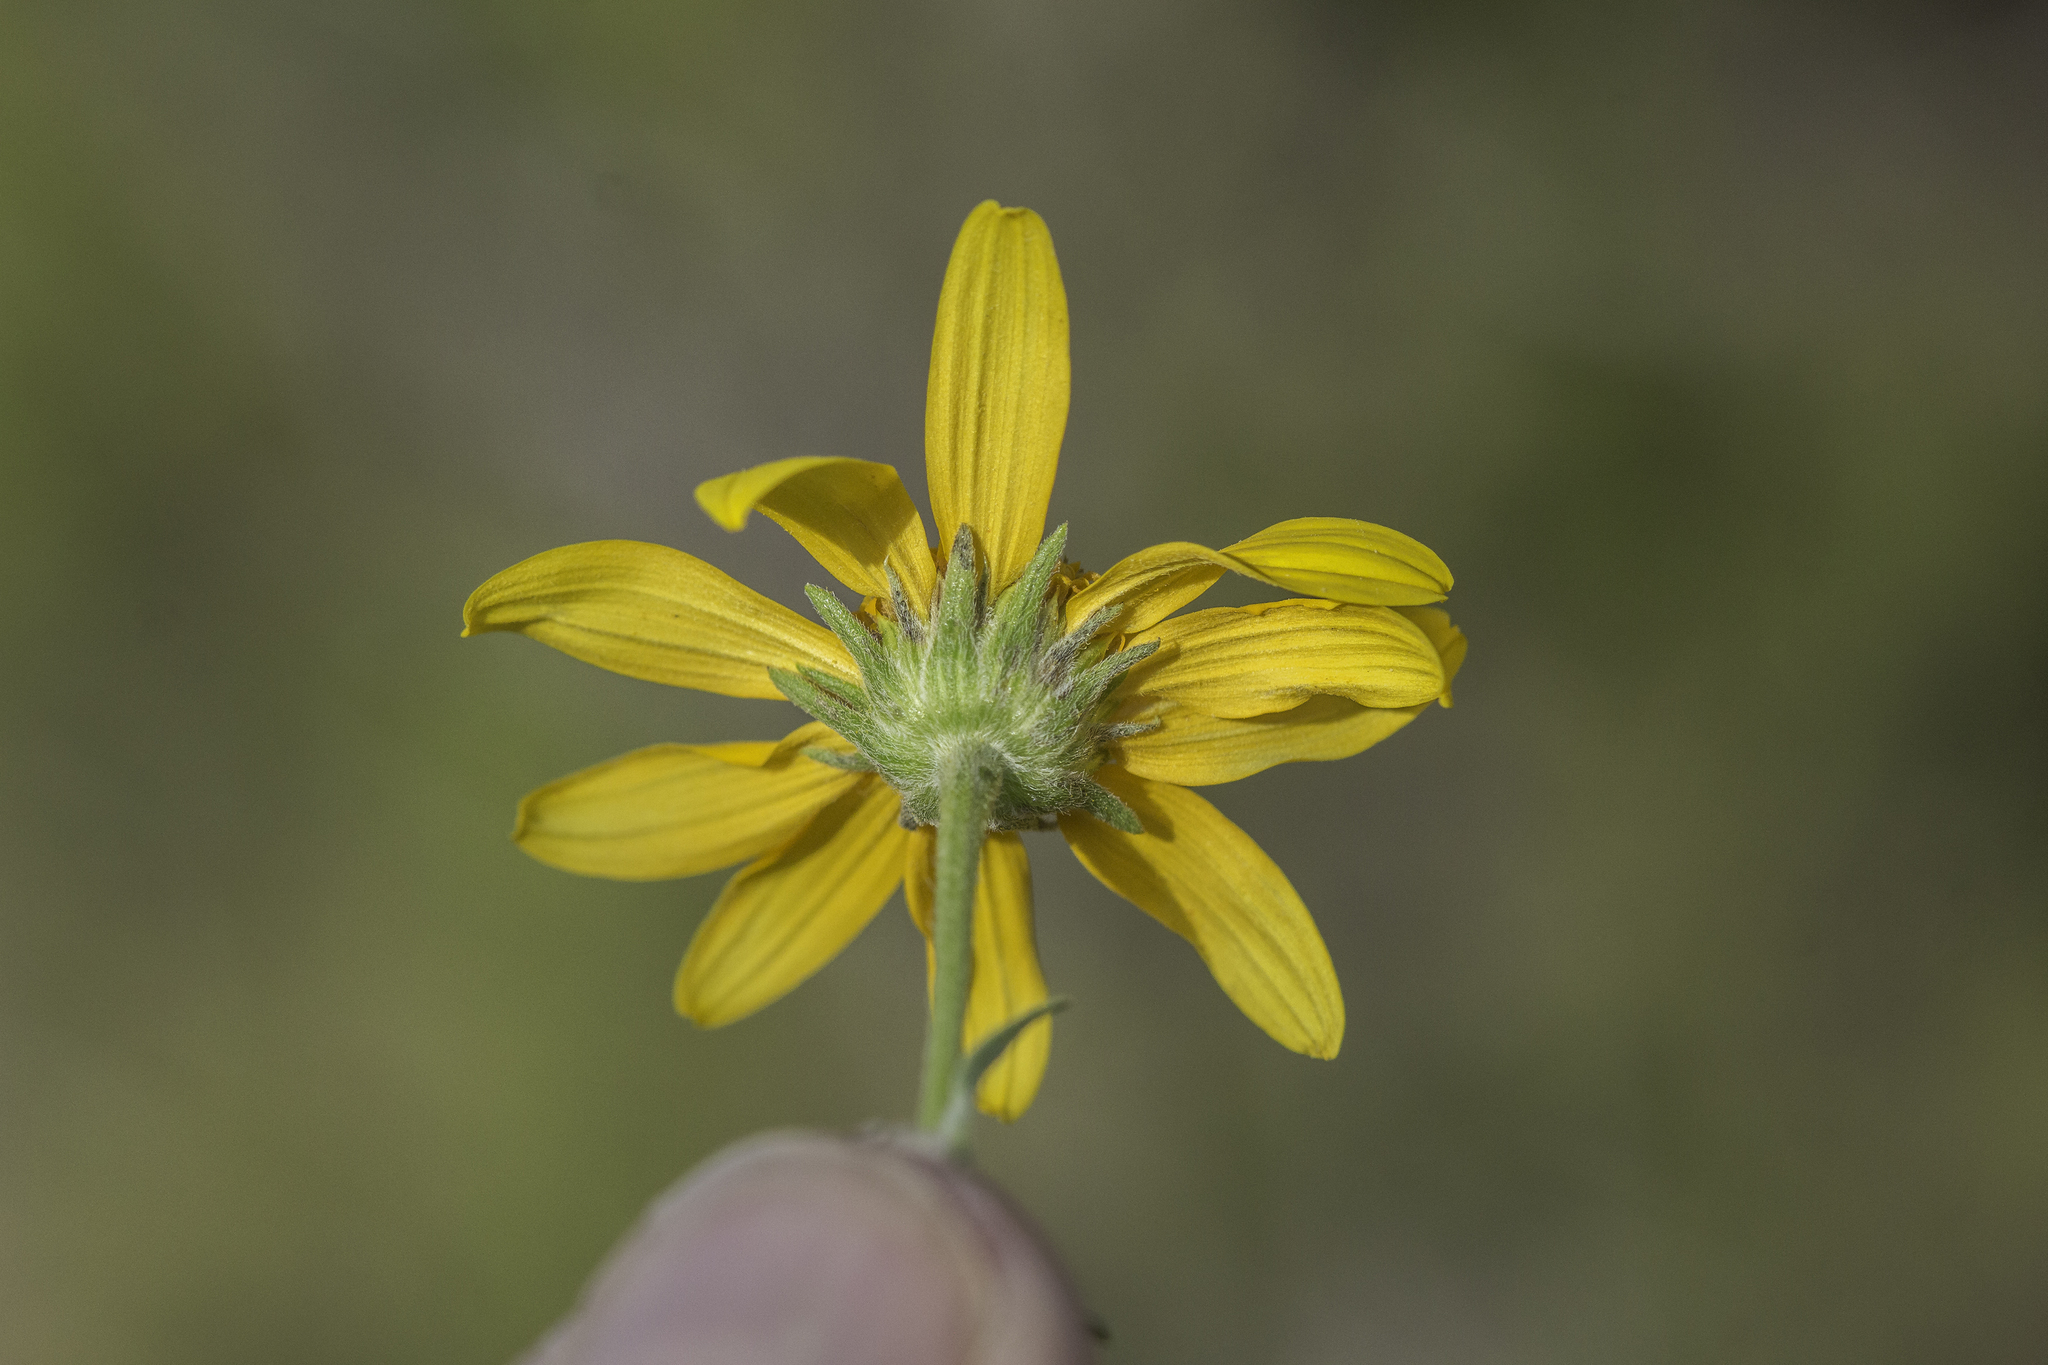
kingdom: Plantae
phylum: Tracheophyta
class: Magnoliopsida
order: Asterales
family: Asteraceae
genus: Viguiera
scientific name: Viguiera dentata
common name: Toothleaf
